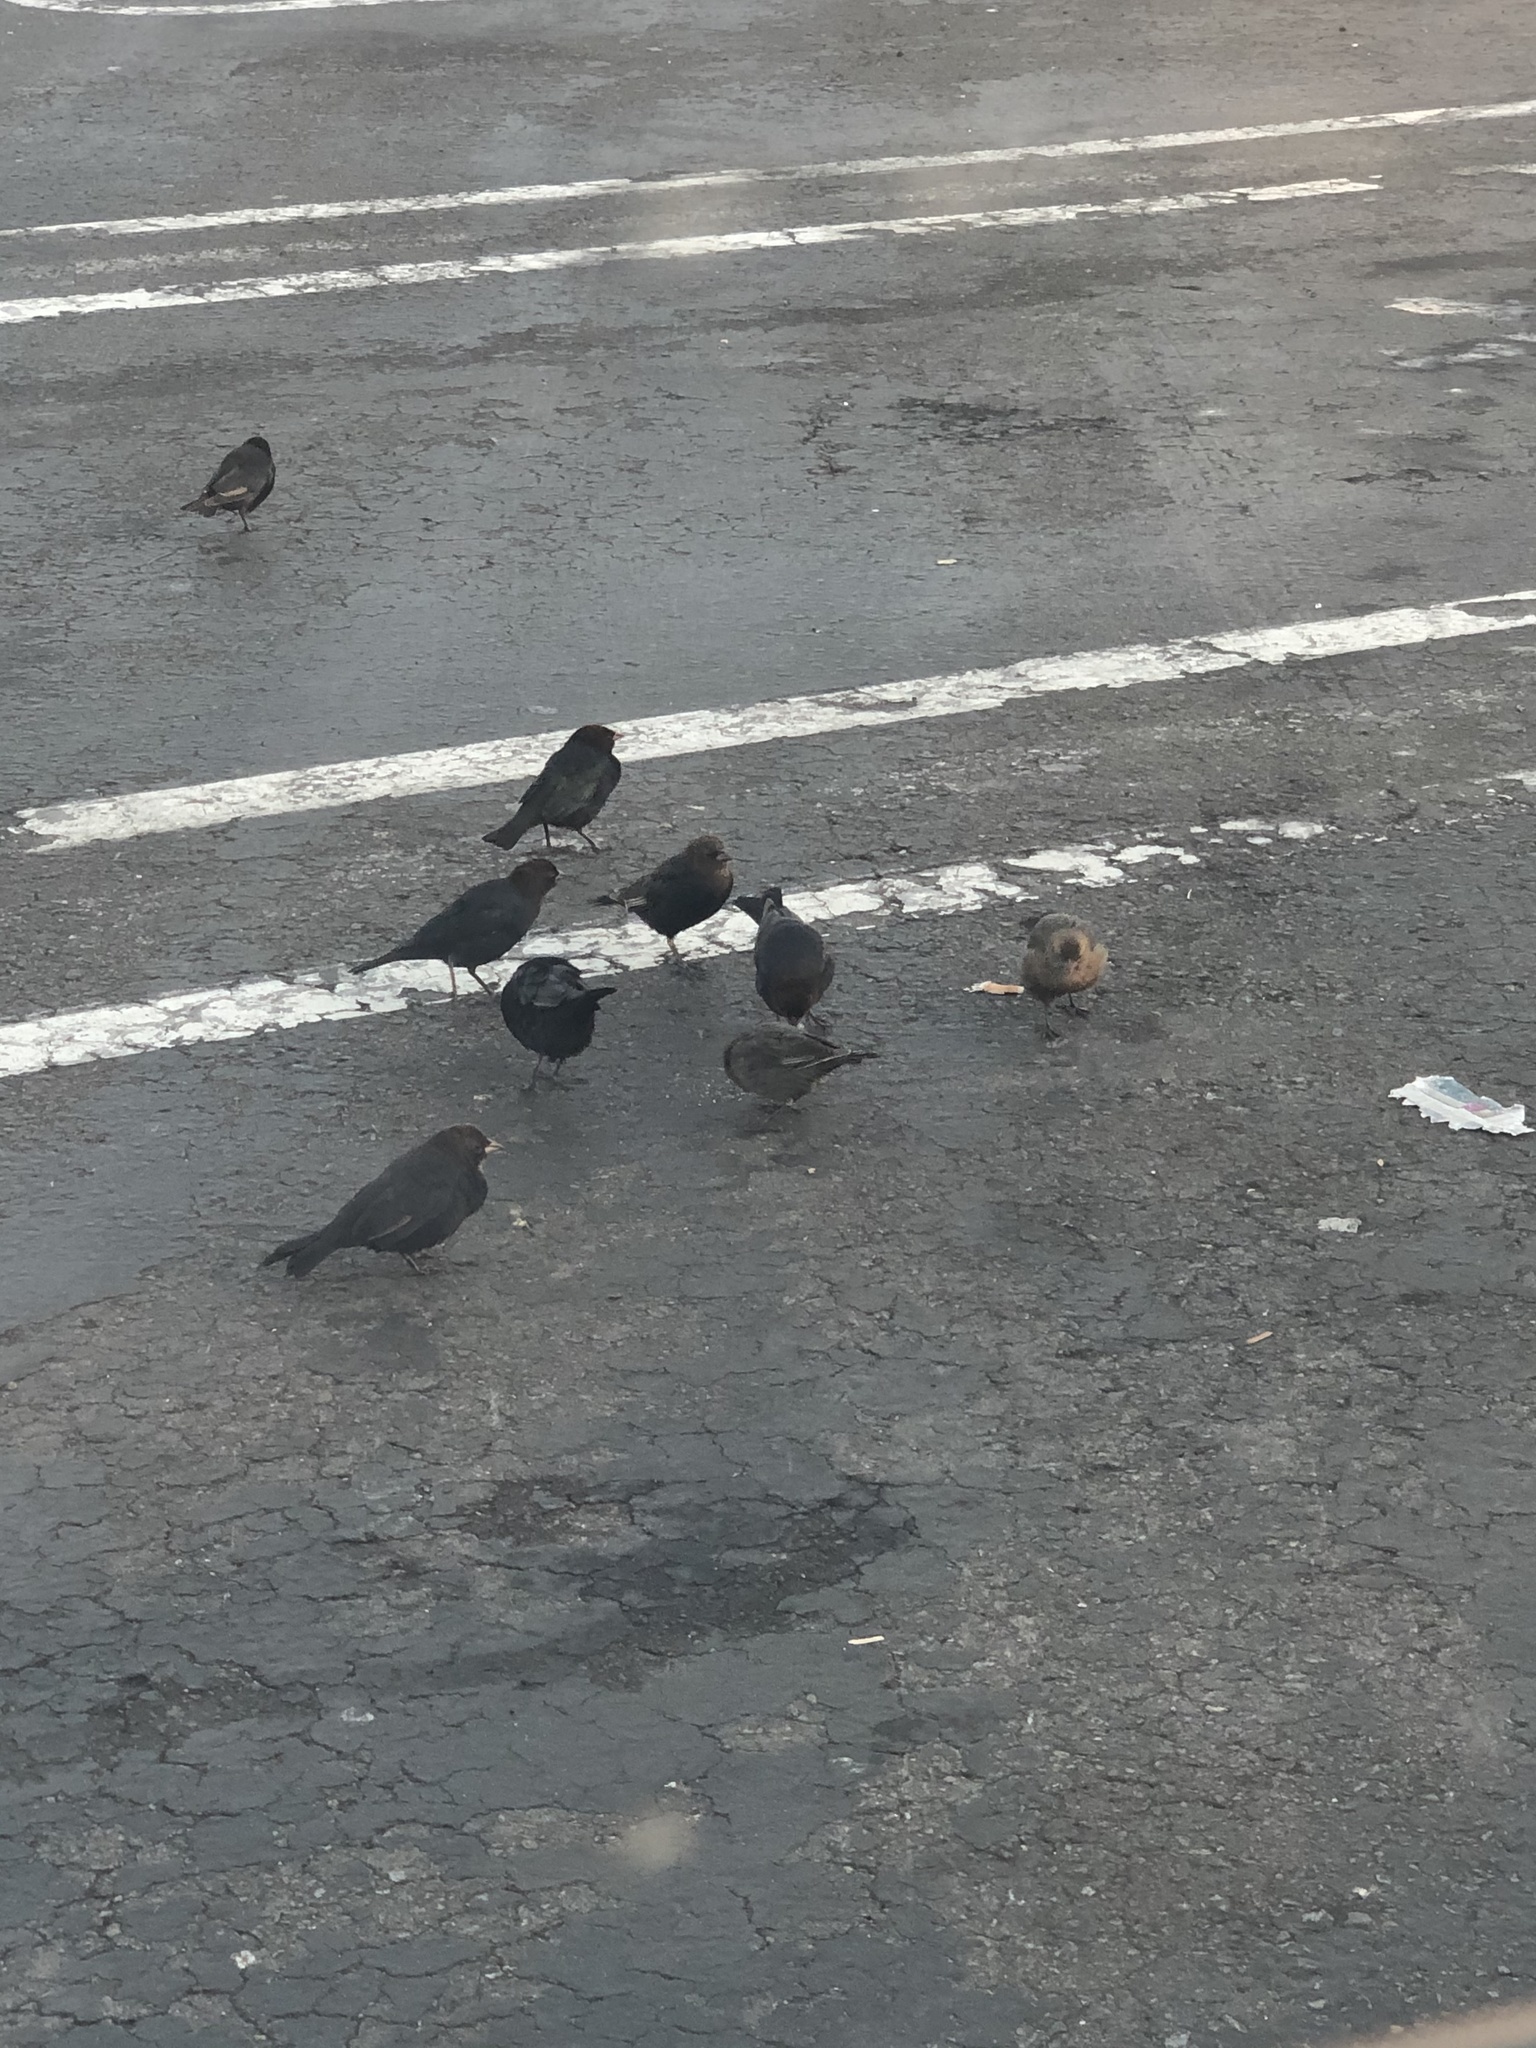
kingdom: Animalia
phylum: Chordata
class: Aves
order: Passeriformes
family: Icteridae
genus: Molothrus
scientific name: Molothrus ater
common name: Brown-headed cowbird
